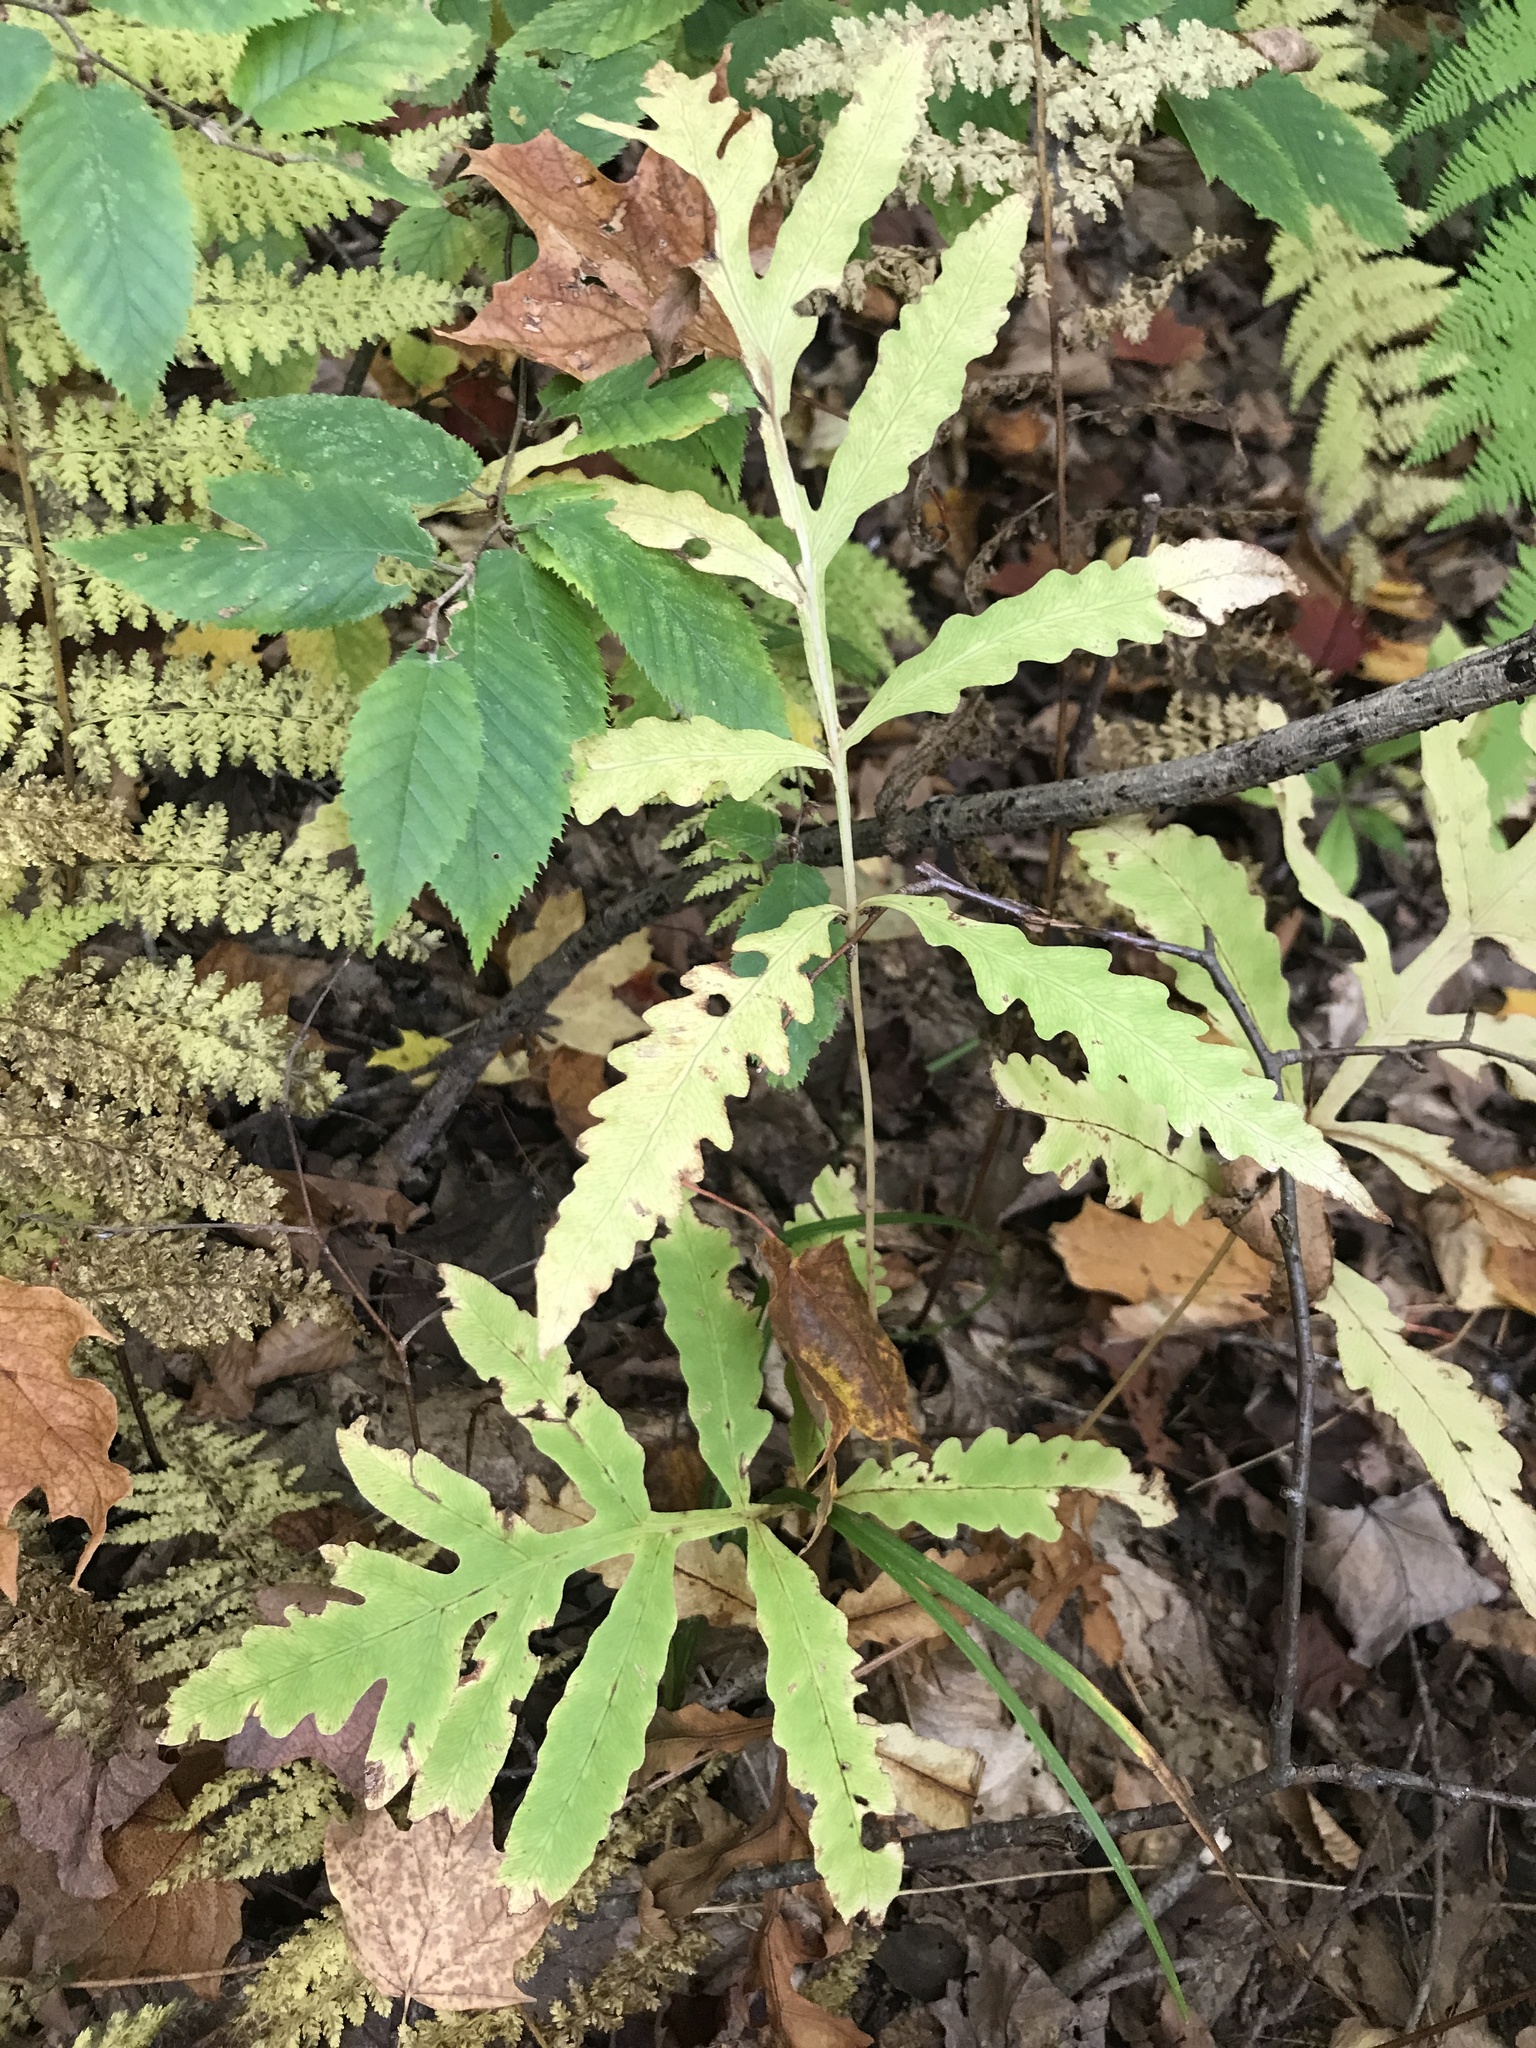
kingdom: Plantae
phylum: Tracheophyta
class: Polypodiopsida
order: Polypodiales
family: Onocleaceae
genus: Onoclea
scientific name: Onoclea sensibilis
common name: Sensitive fern
